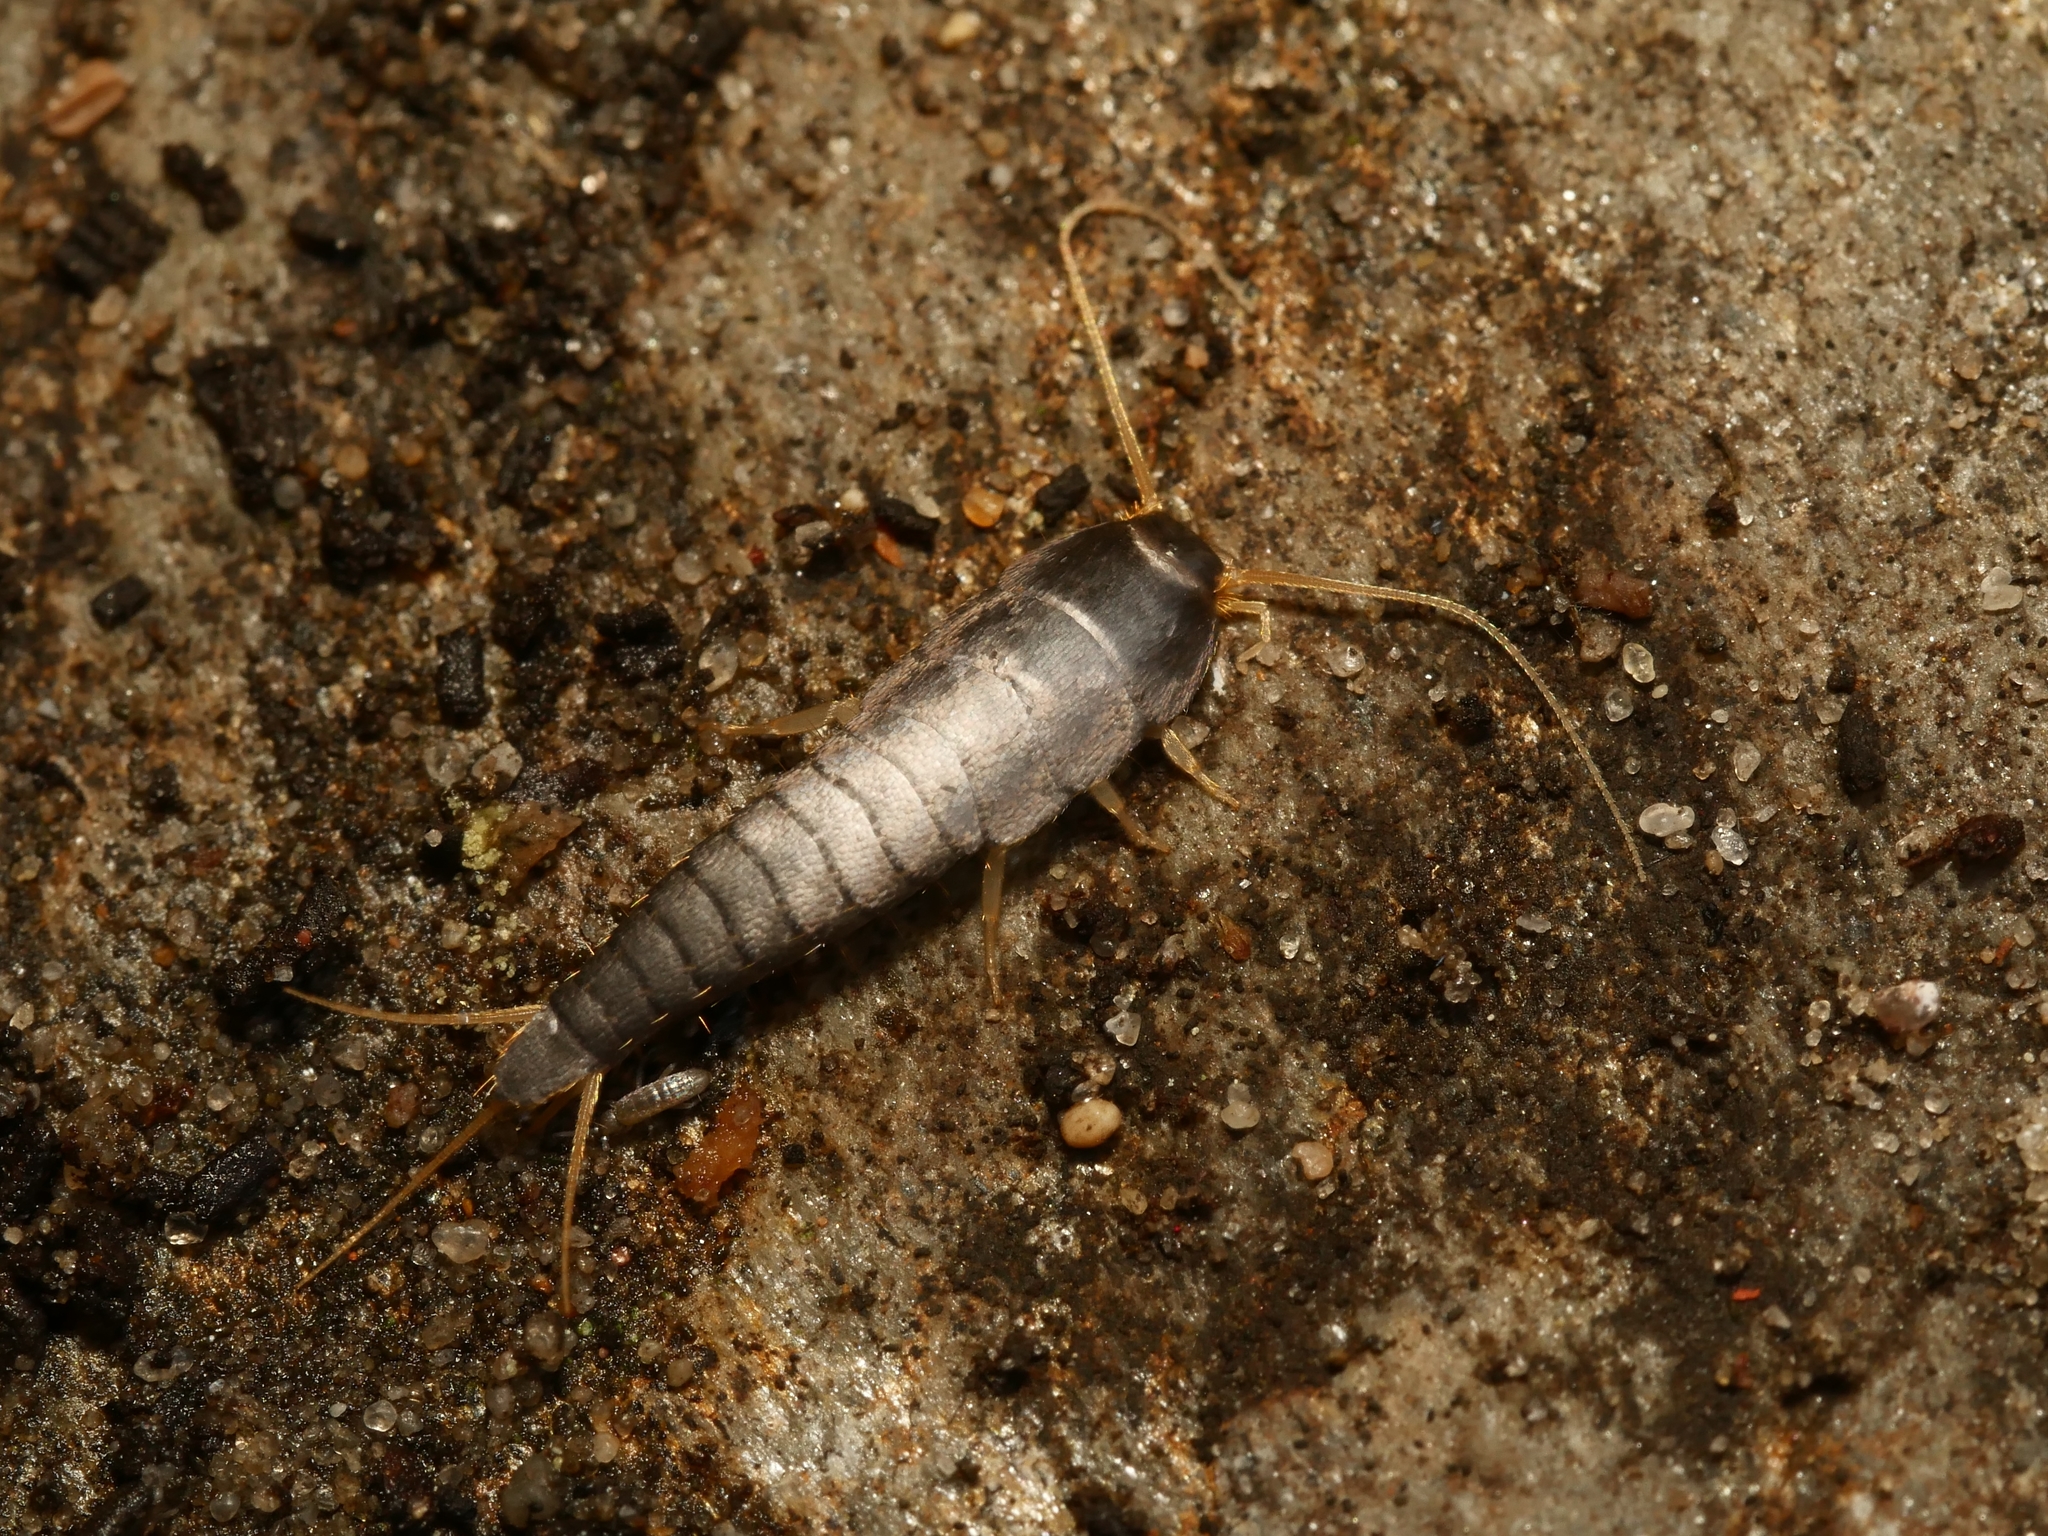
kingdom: Animalia
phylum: Arthropoda
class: Insecta
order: Zygentoma
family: Lepismatidae
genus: Lepisma
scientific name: Lepisma saccharinum
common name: Silverfish
